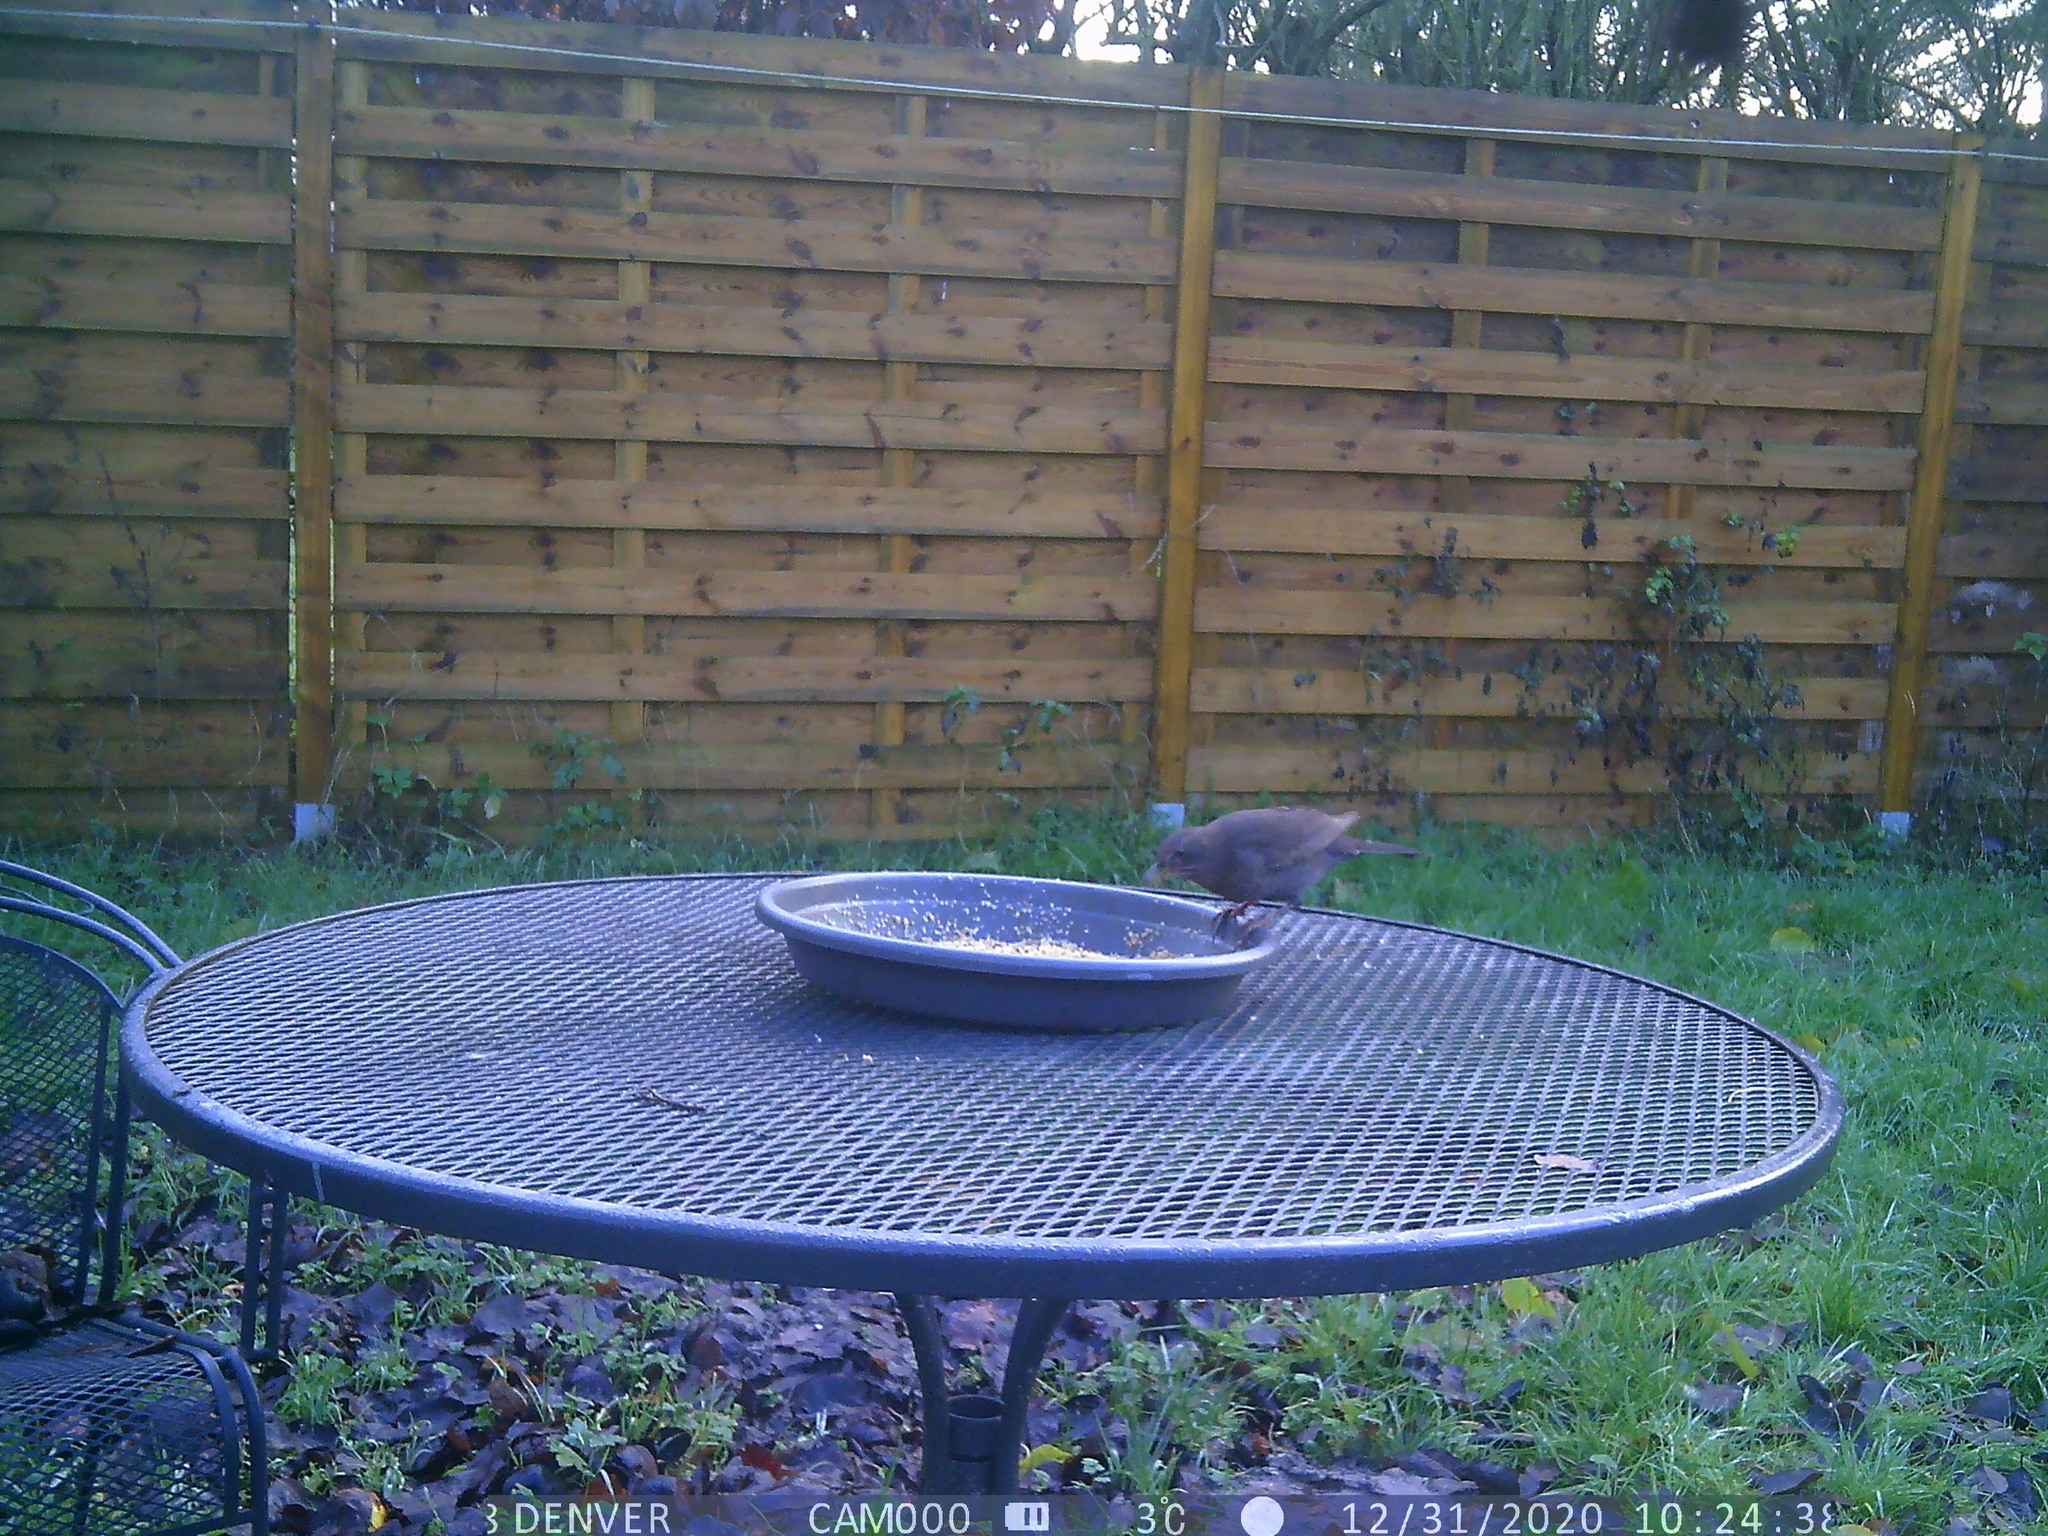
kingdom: Animalia
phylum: Chordata
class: Aves
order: Passeriformes
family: Turdidae
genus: Turdus
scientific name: Turdus merula
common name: Common blackbird
